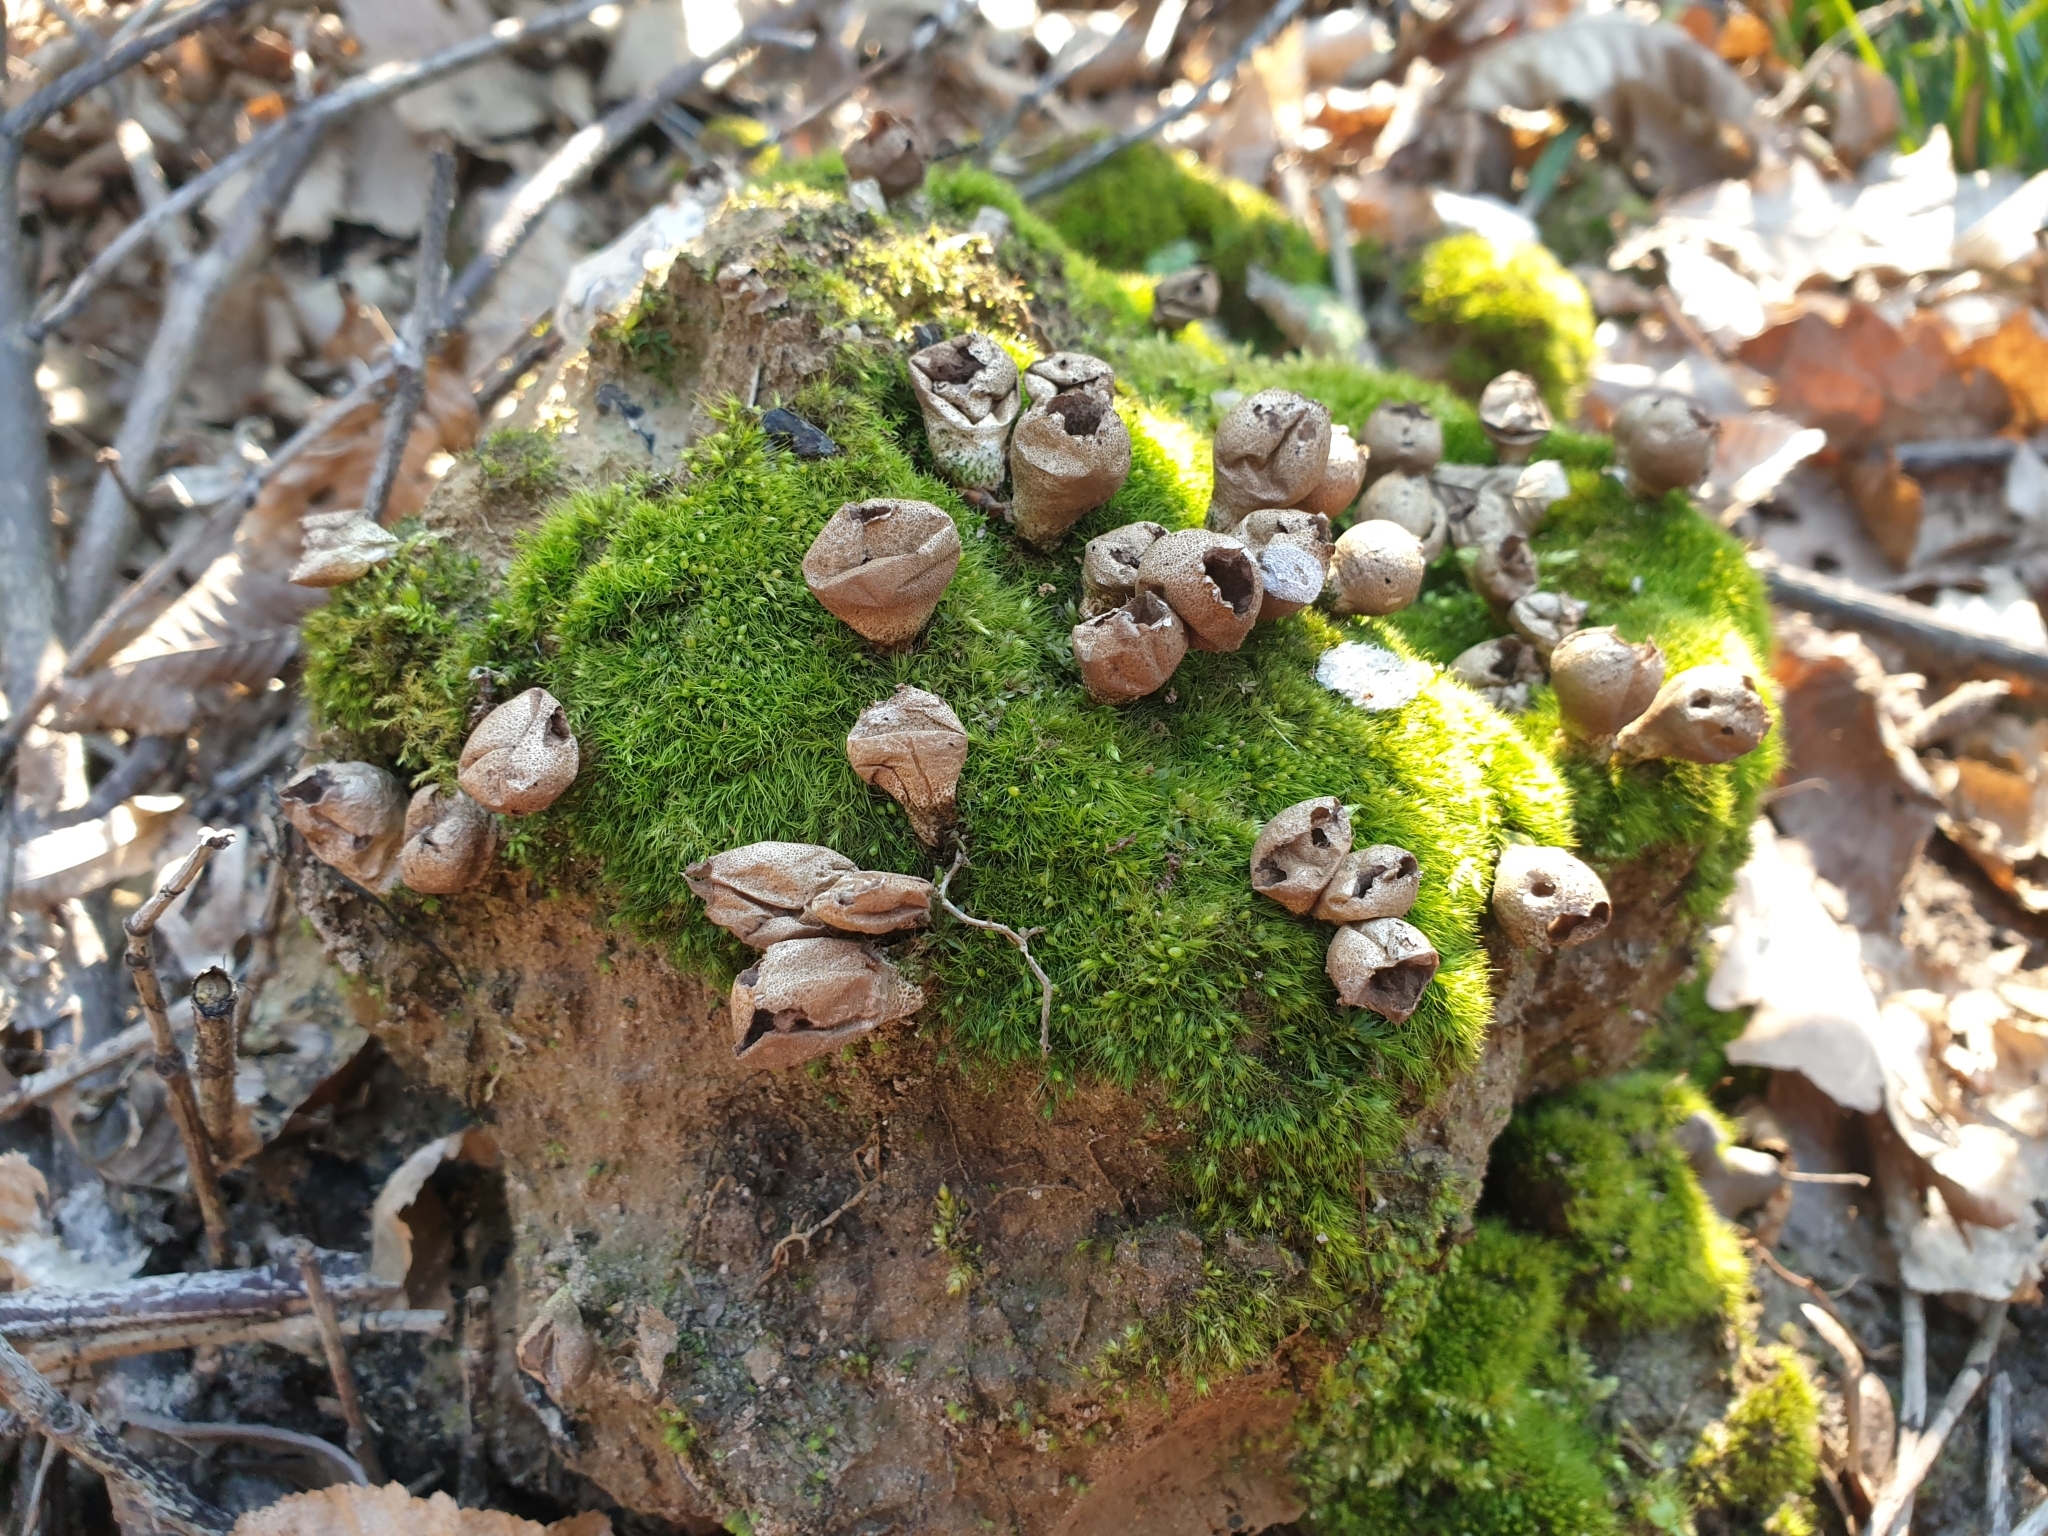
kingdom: Fungi
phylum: Basidiomycota
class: Agaricomycetes
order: Agaricales
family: Lycoperdaceae
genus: Apioperdon
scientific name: Apioperdon pyriforme
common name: Pear-shaped puffball
